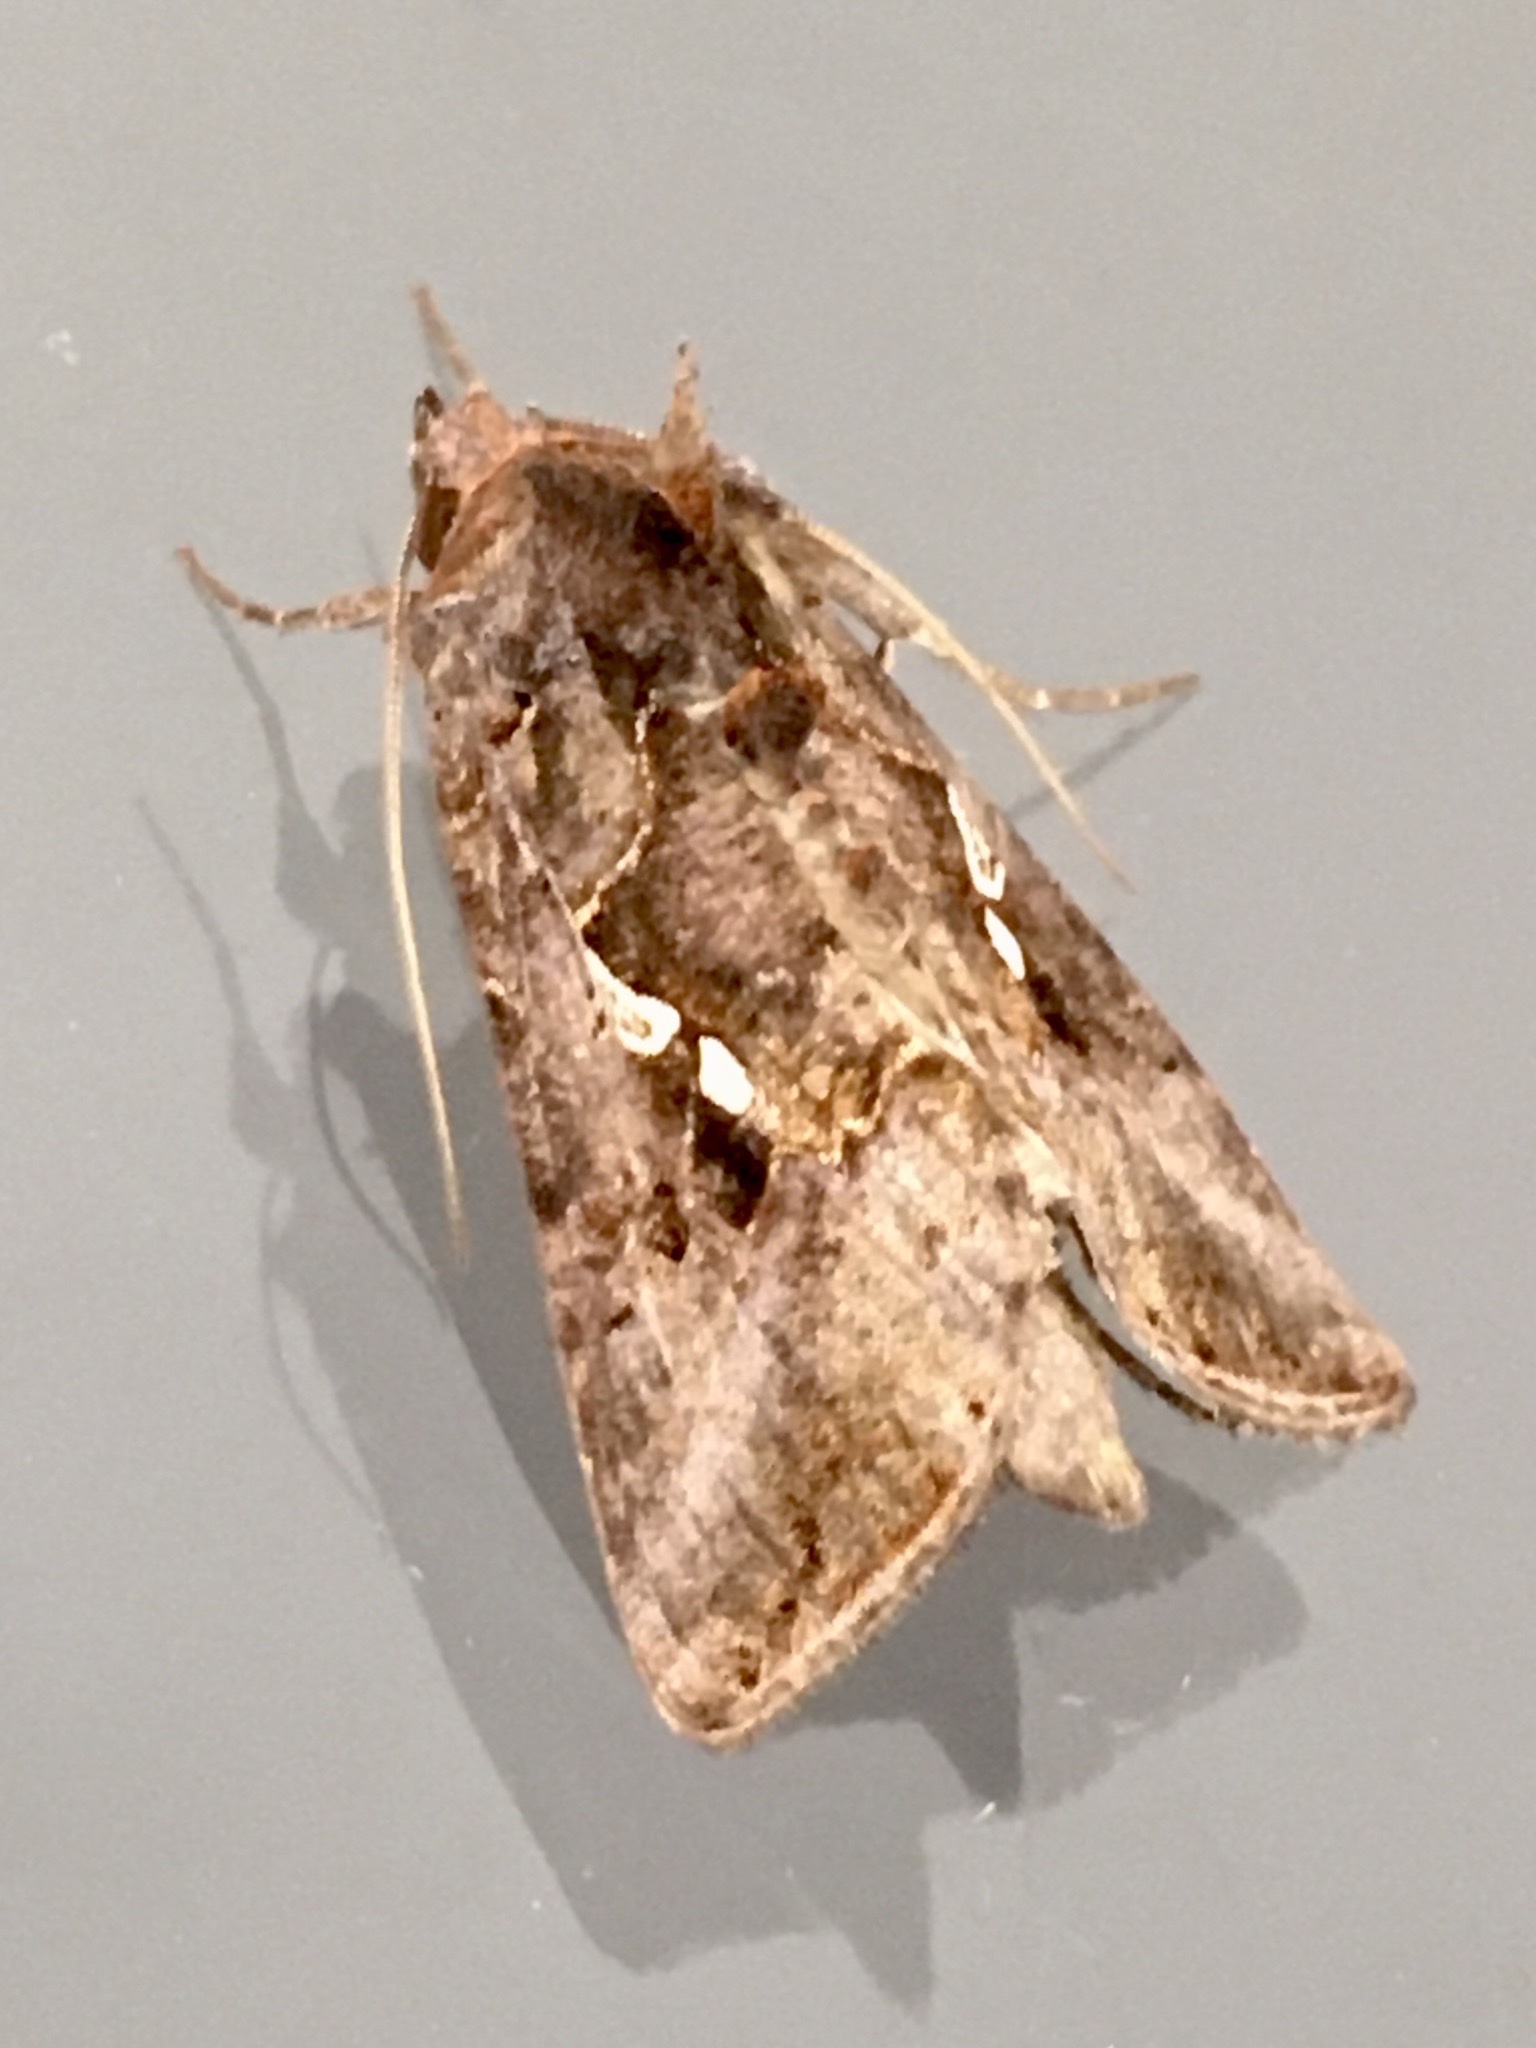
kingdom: Animalia
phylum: Arthropoda
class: Insecta
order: Lepidoptera
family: Noctuidae
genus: Autographa
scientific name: Autographa precationis
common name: Common looper moth
